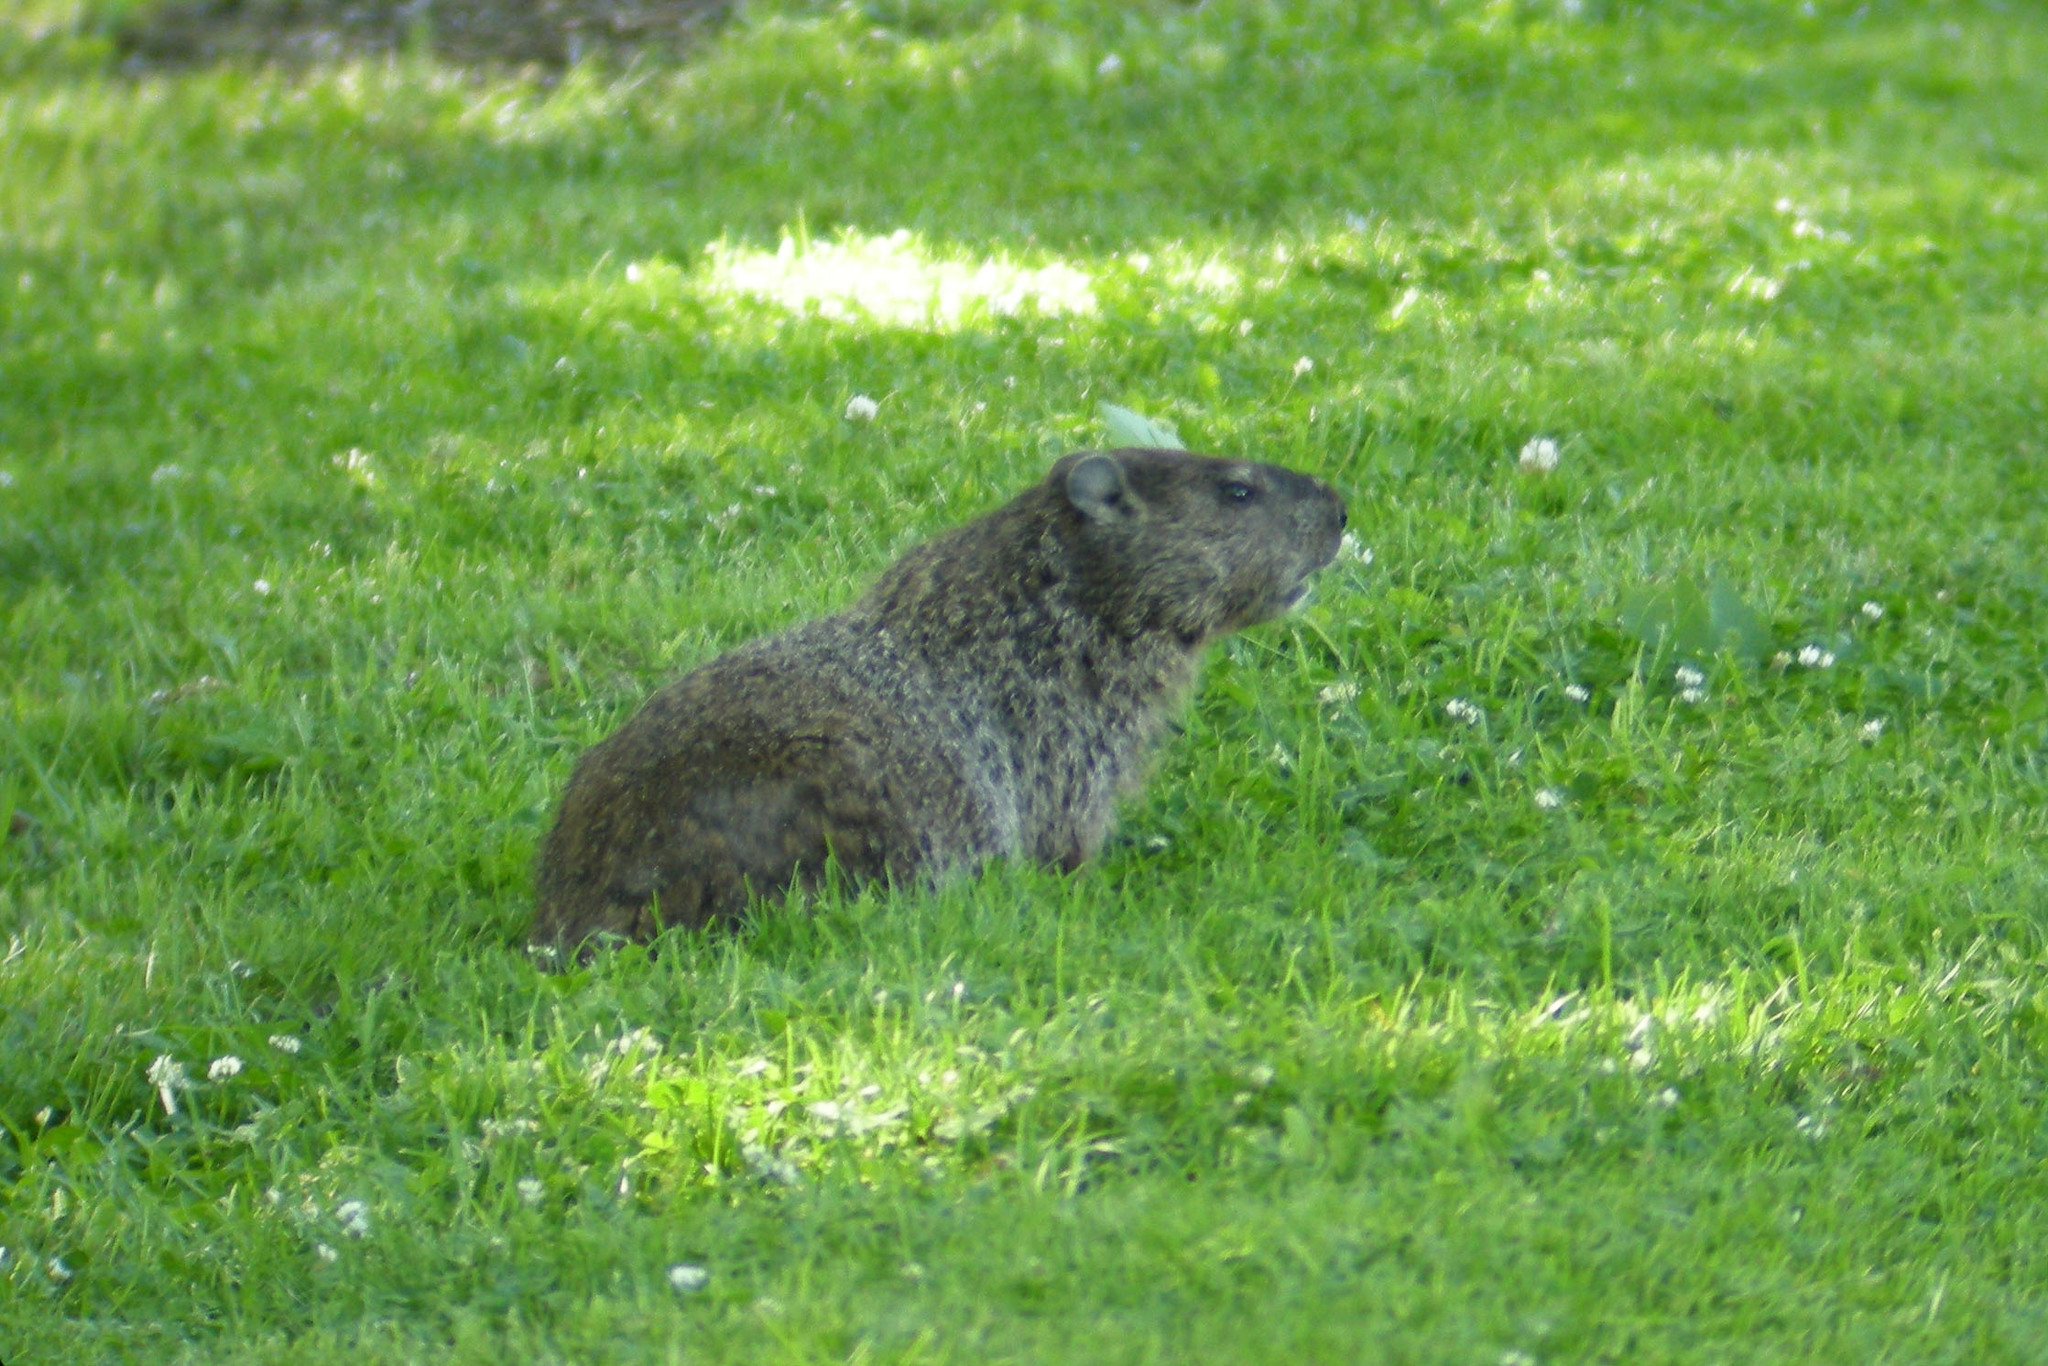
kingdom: Animalia
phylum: Chordata
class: Mammalia
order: Rodentia
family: Sciuridae
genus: Marmota
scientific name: Marmota monax
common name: Groundhog
